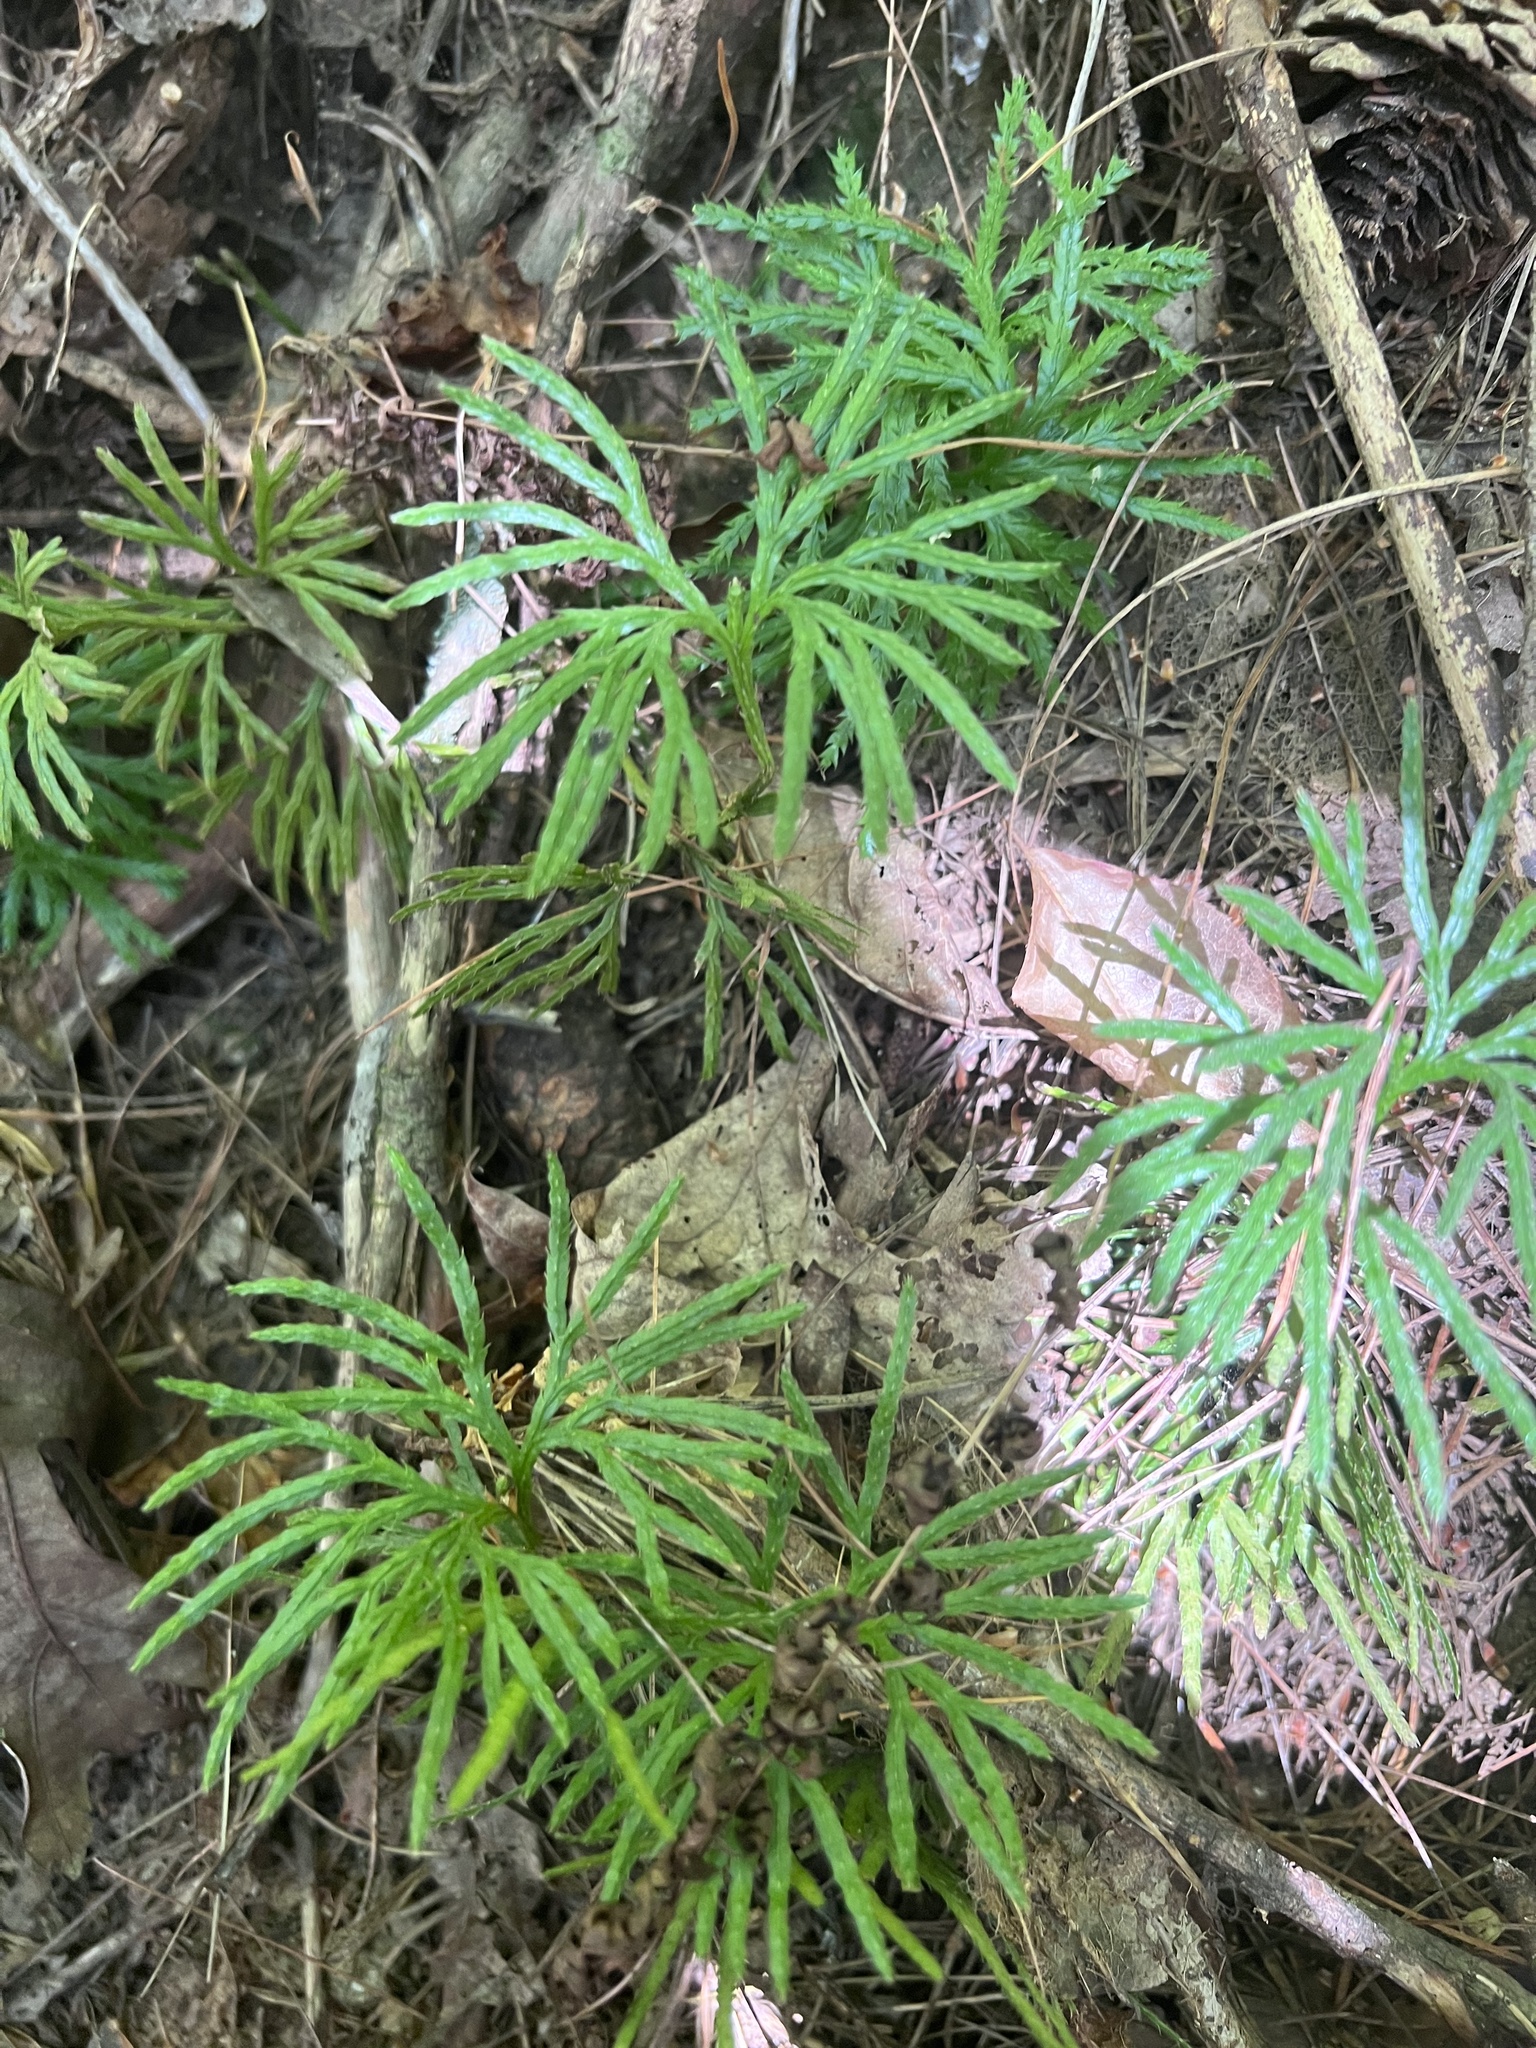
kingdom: Plantae
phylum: Tracheophyta
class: Lycopodiopsida
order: Lycopodiales
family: Lycopodiaceae
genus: Diphasiastrum
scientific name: Diphasiastrum digitatum
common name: Southern running-pine
